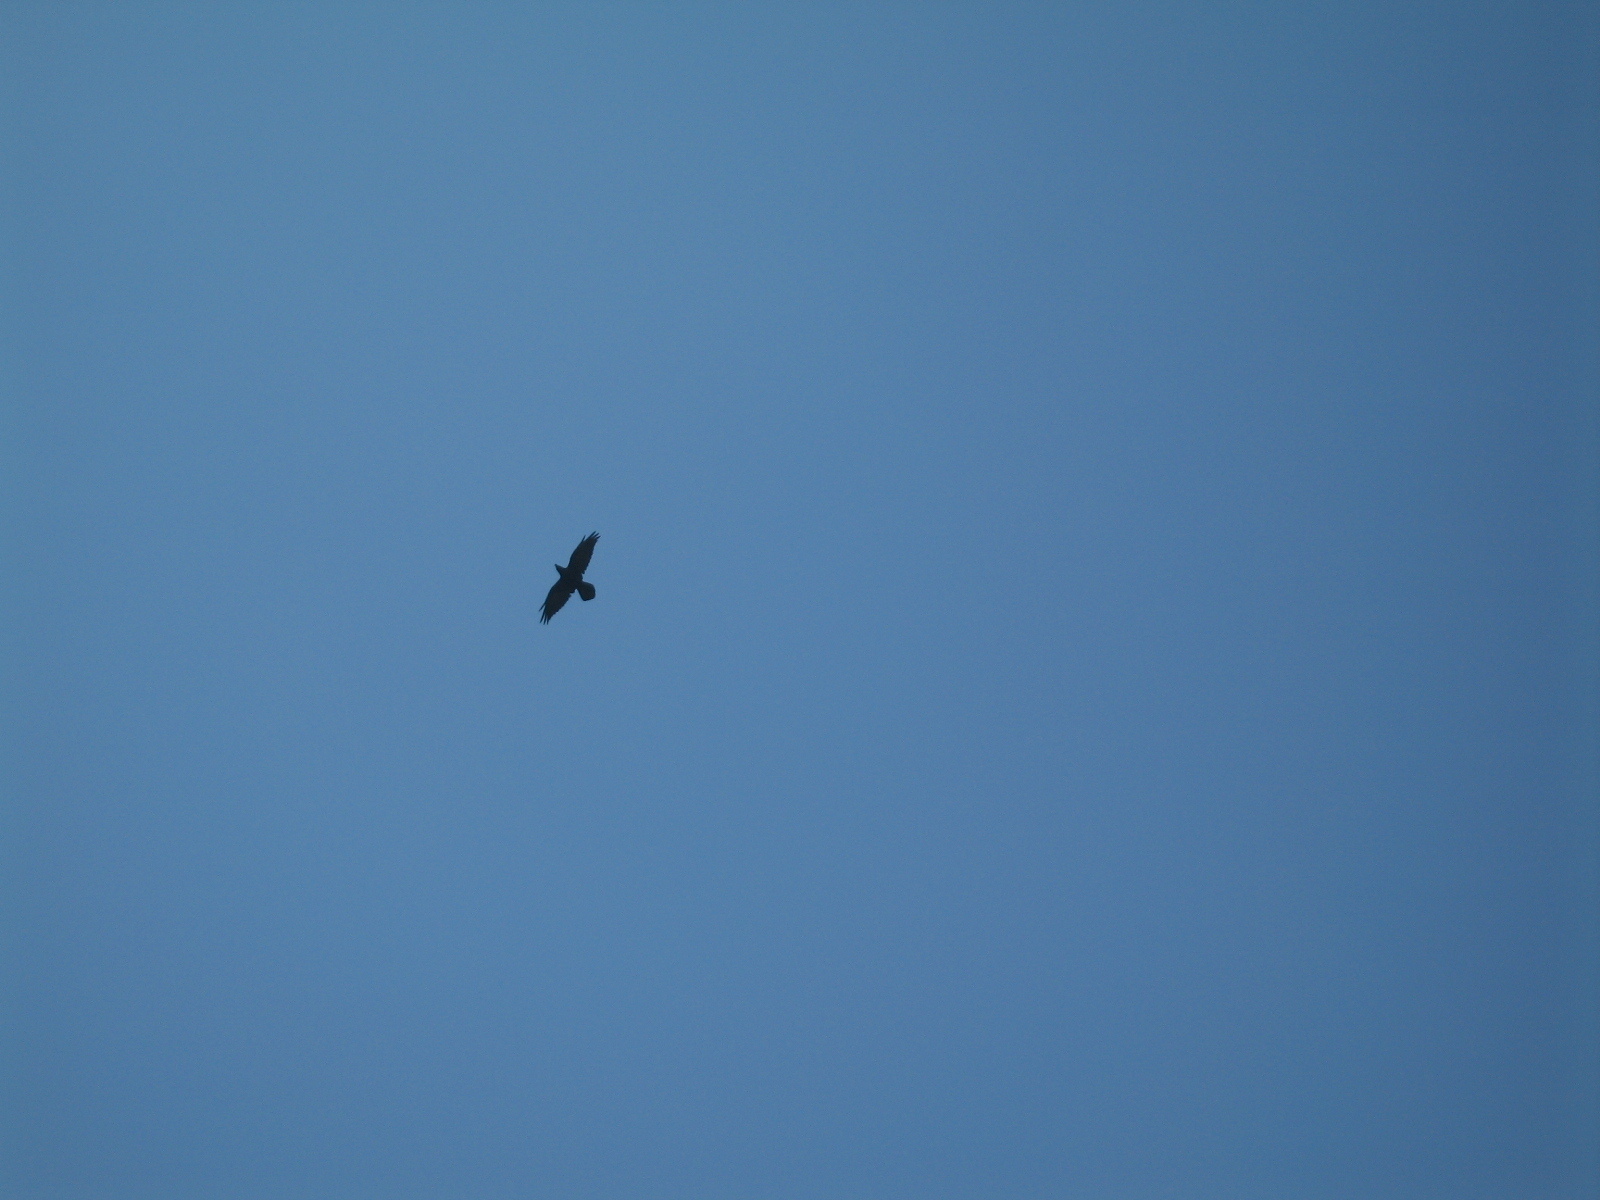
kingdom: Animalia
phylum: Chordata
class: Aves
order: Passeriformes
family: Corvidae
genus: Corvus
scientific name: Corvus corax
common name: Common raven
